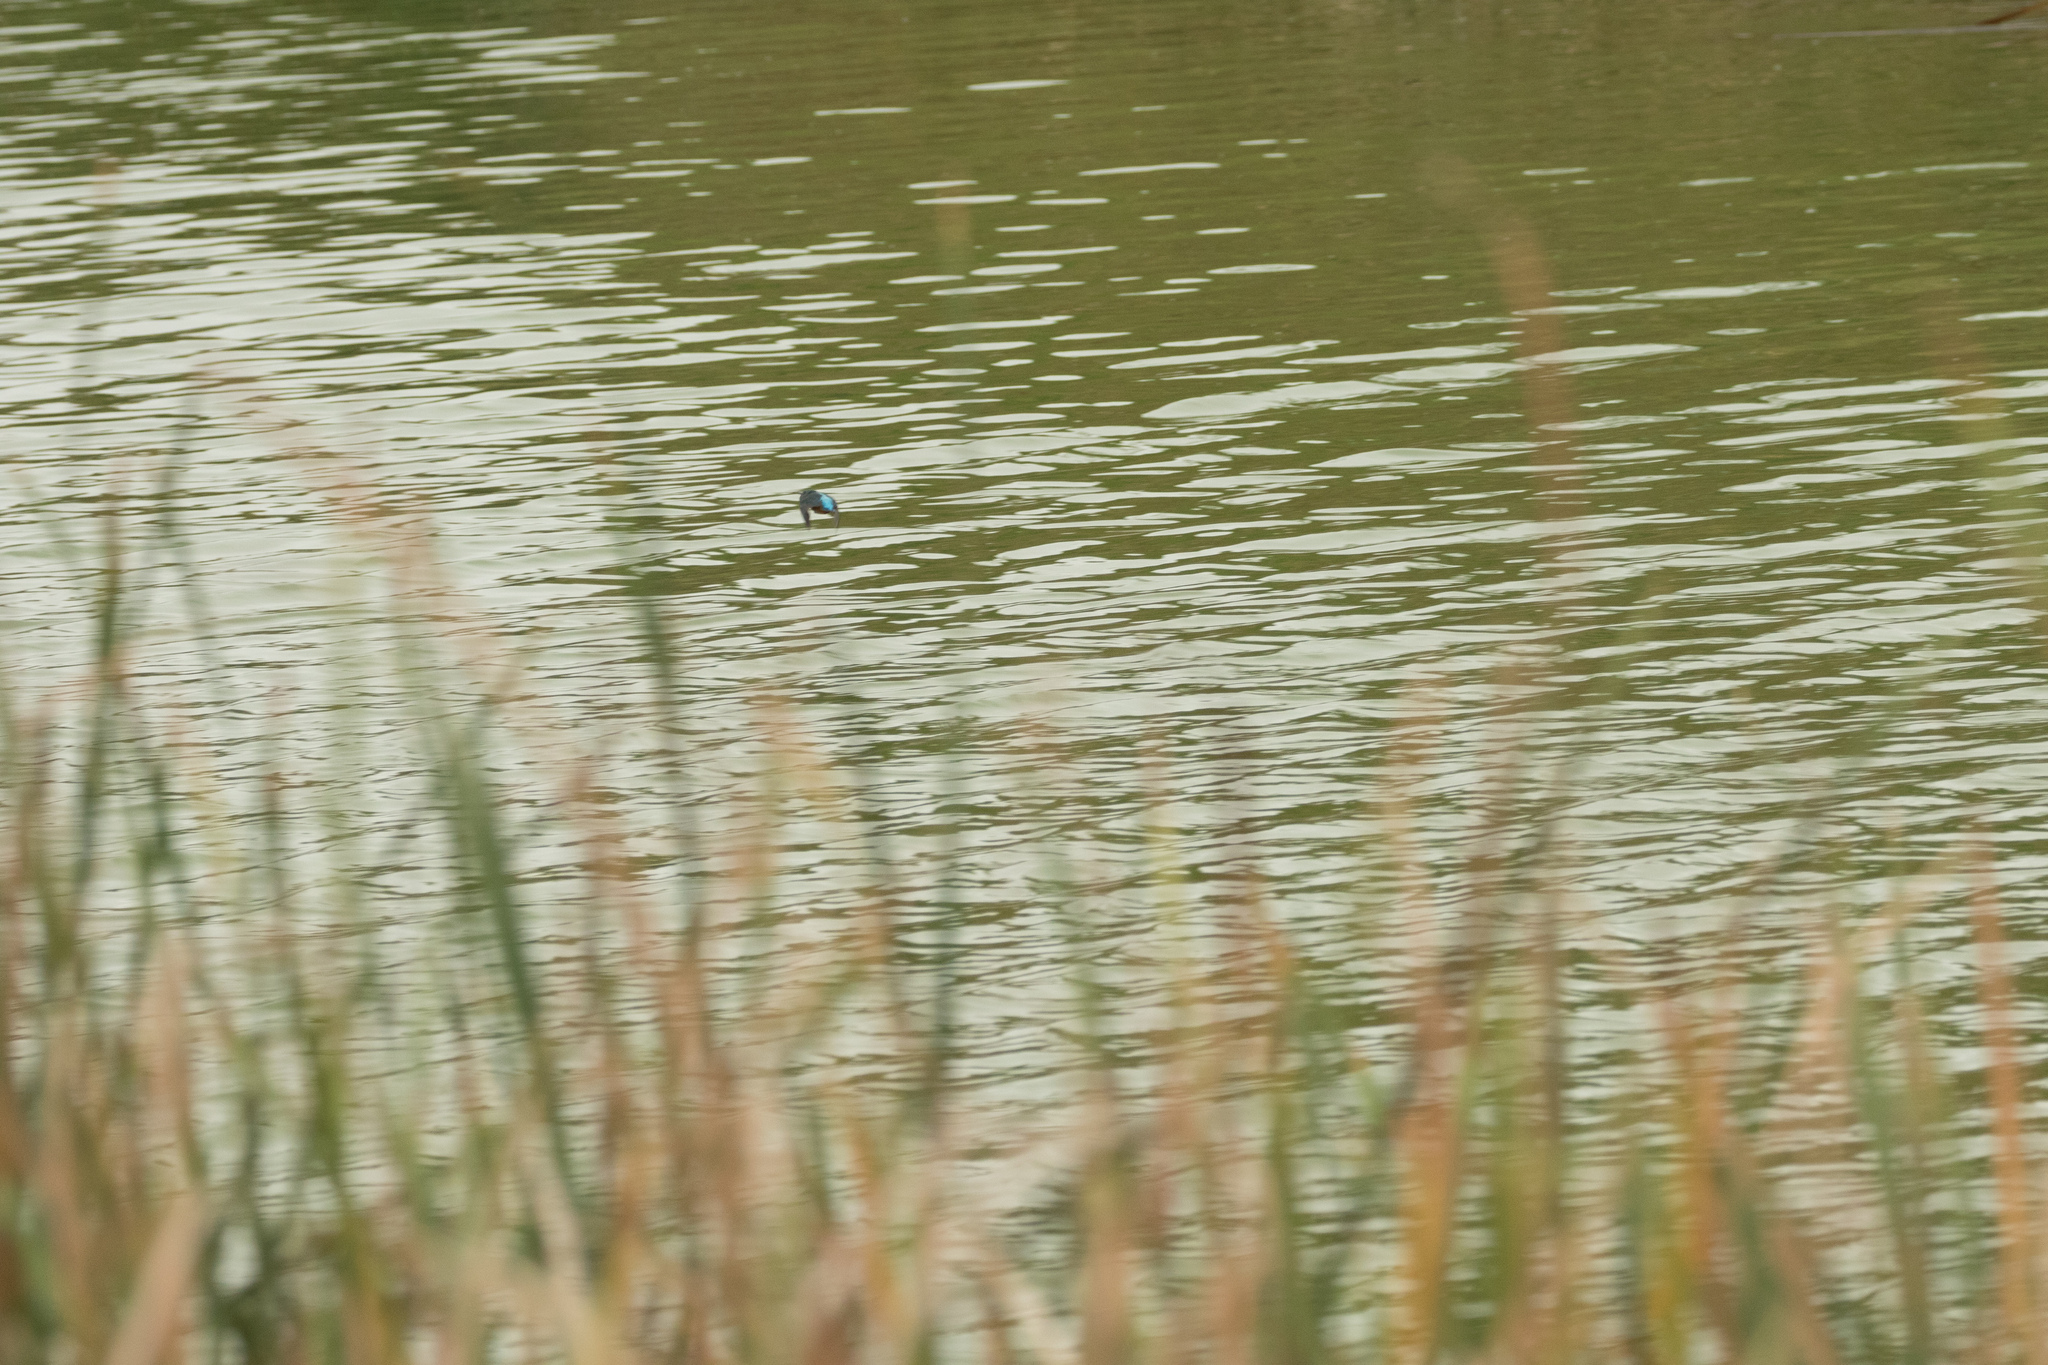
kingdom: Animalia
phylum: Chordata
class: Aves
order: Coraciiformes
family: Alcedinidae
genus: Alcedo
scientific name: Alcedo atthis
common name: Common kingfisher
